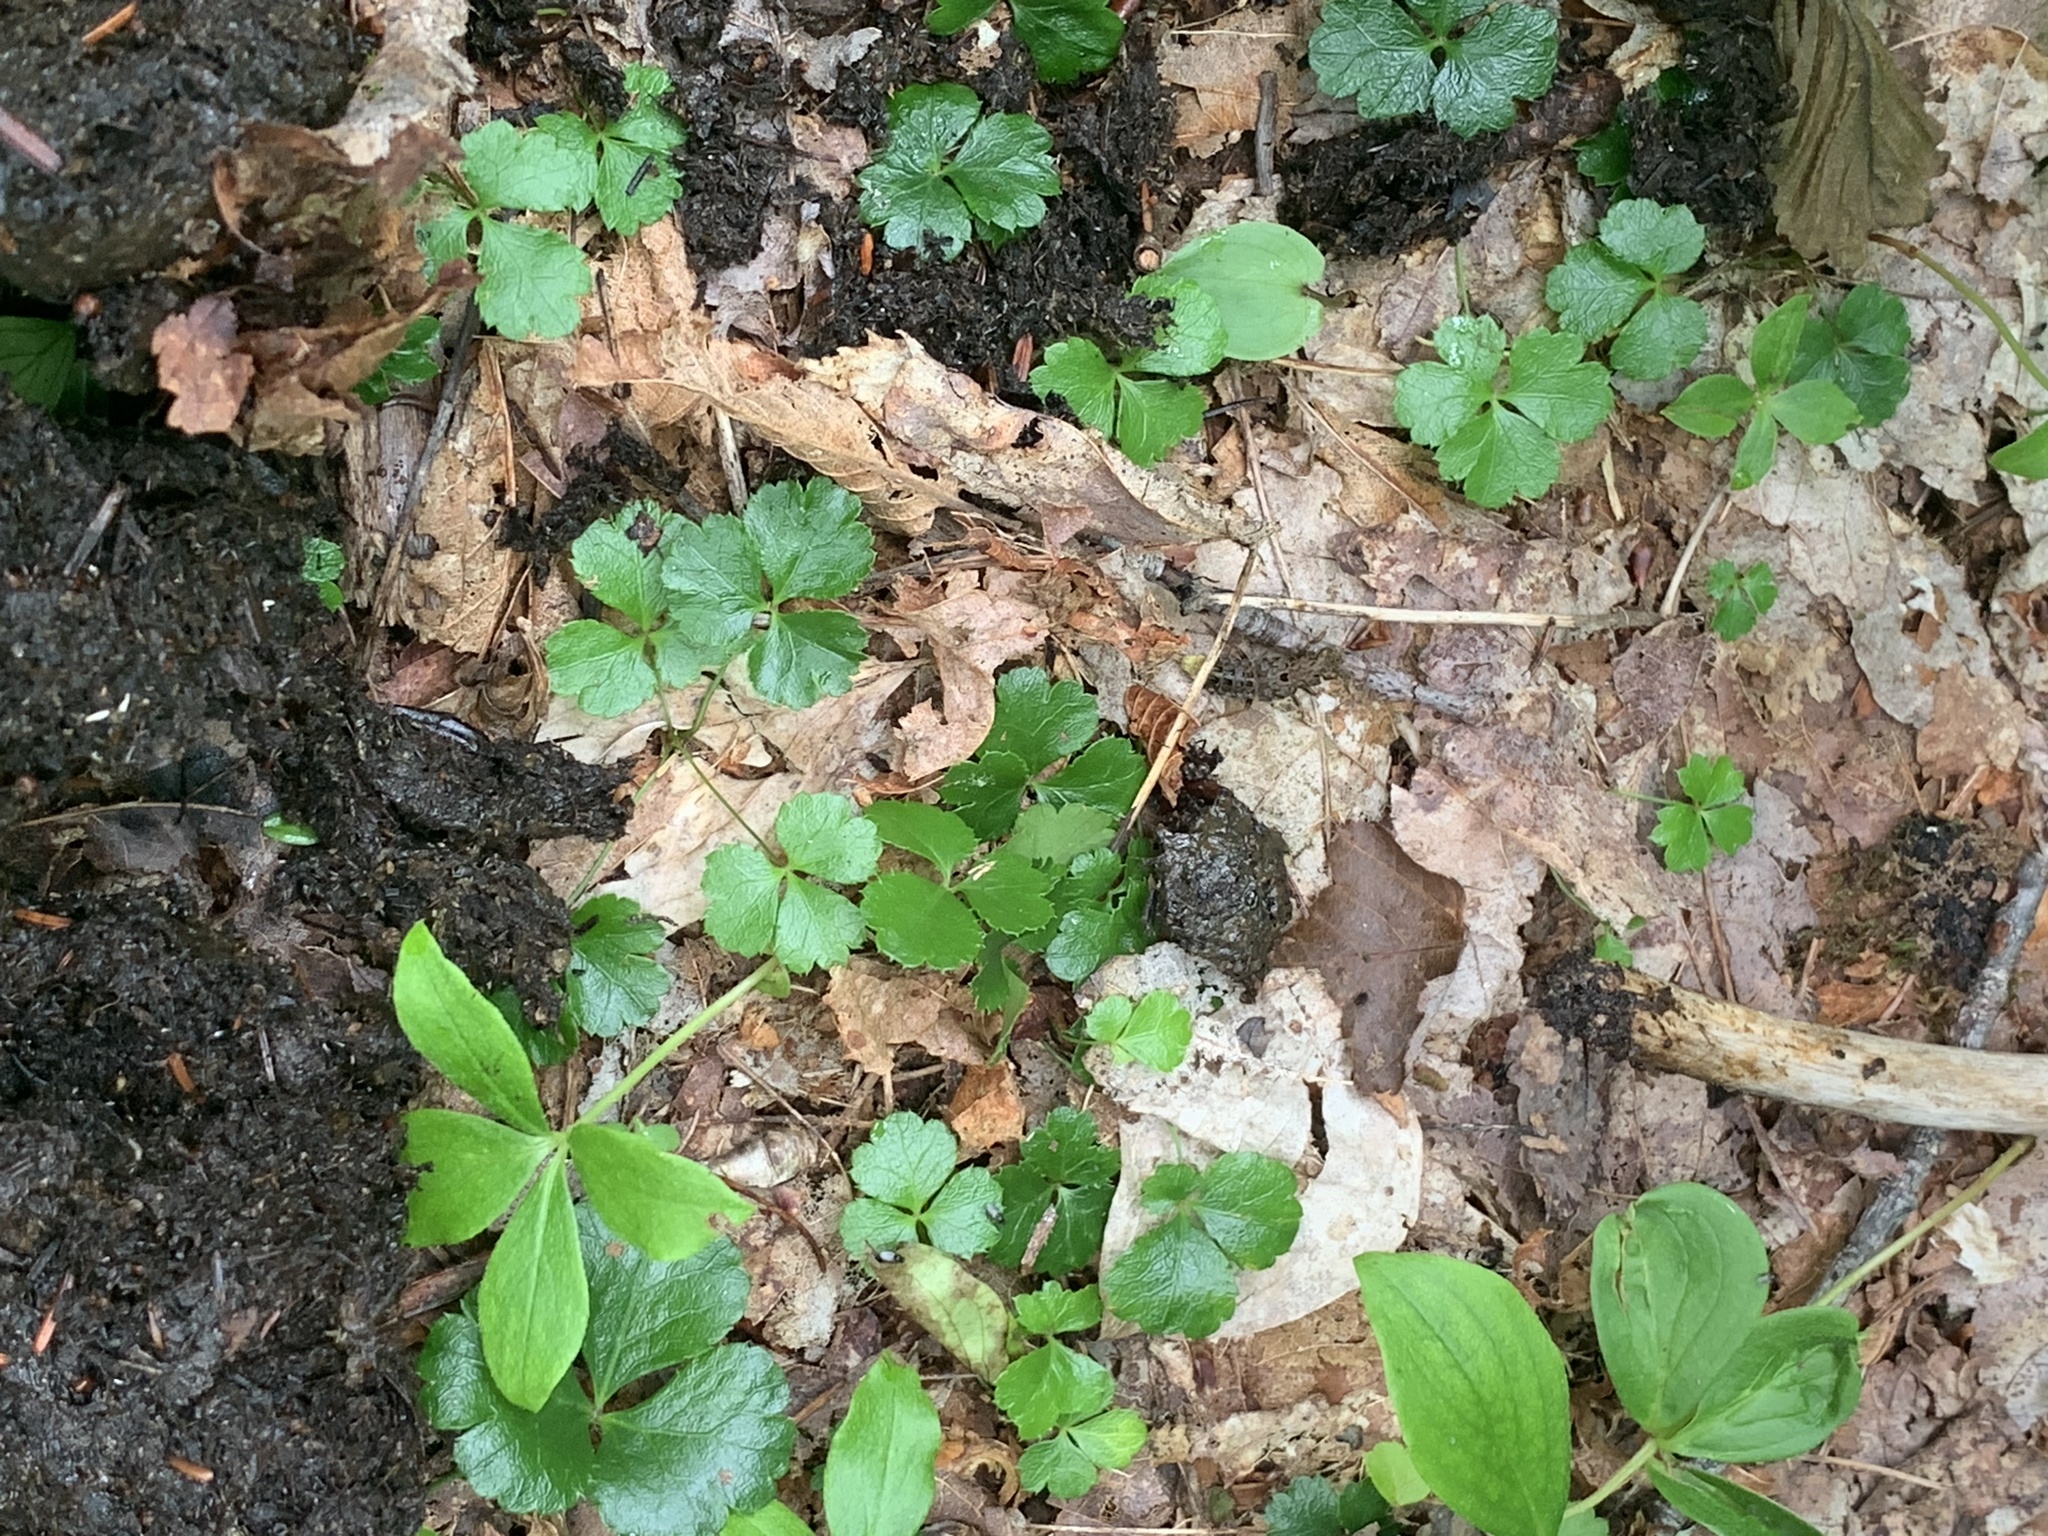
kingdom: Plantae
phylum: Tracheophyta
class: Magnoliopsida
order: Ranunculales
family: Ranunculaceae
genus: Coptis
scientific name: Coptis trifolia
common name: Canker-root
